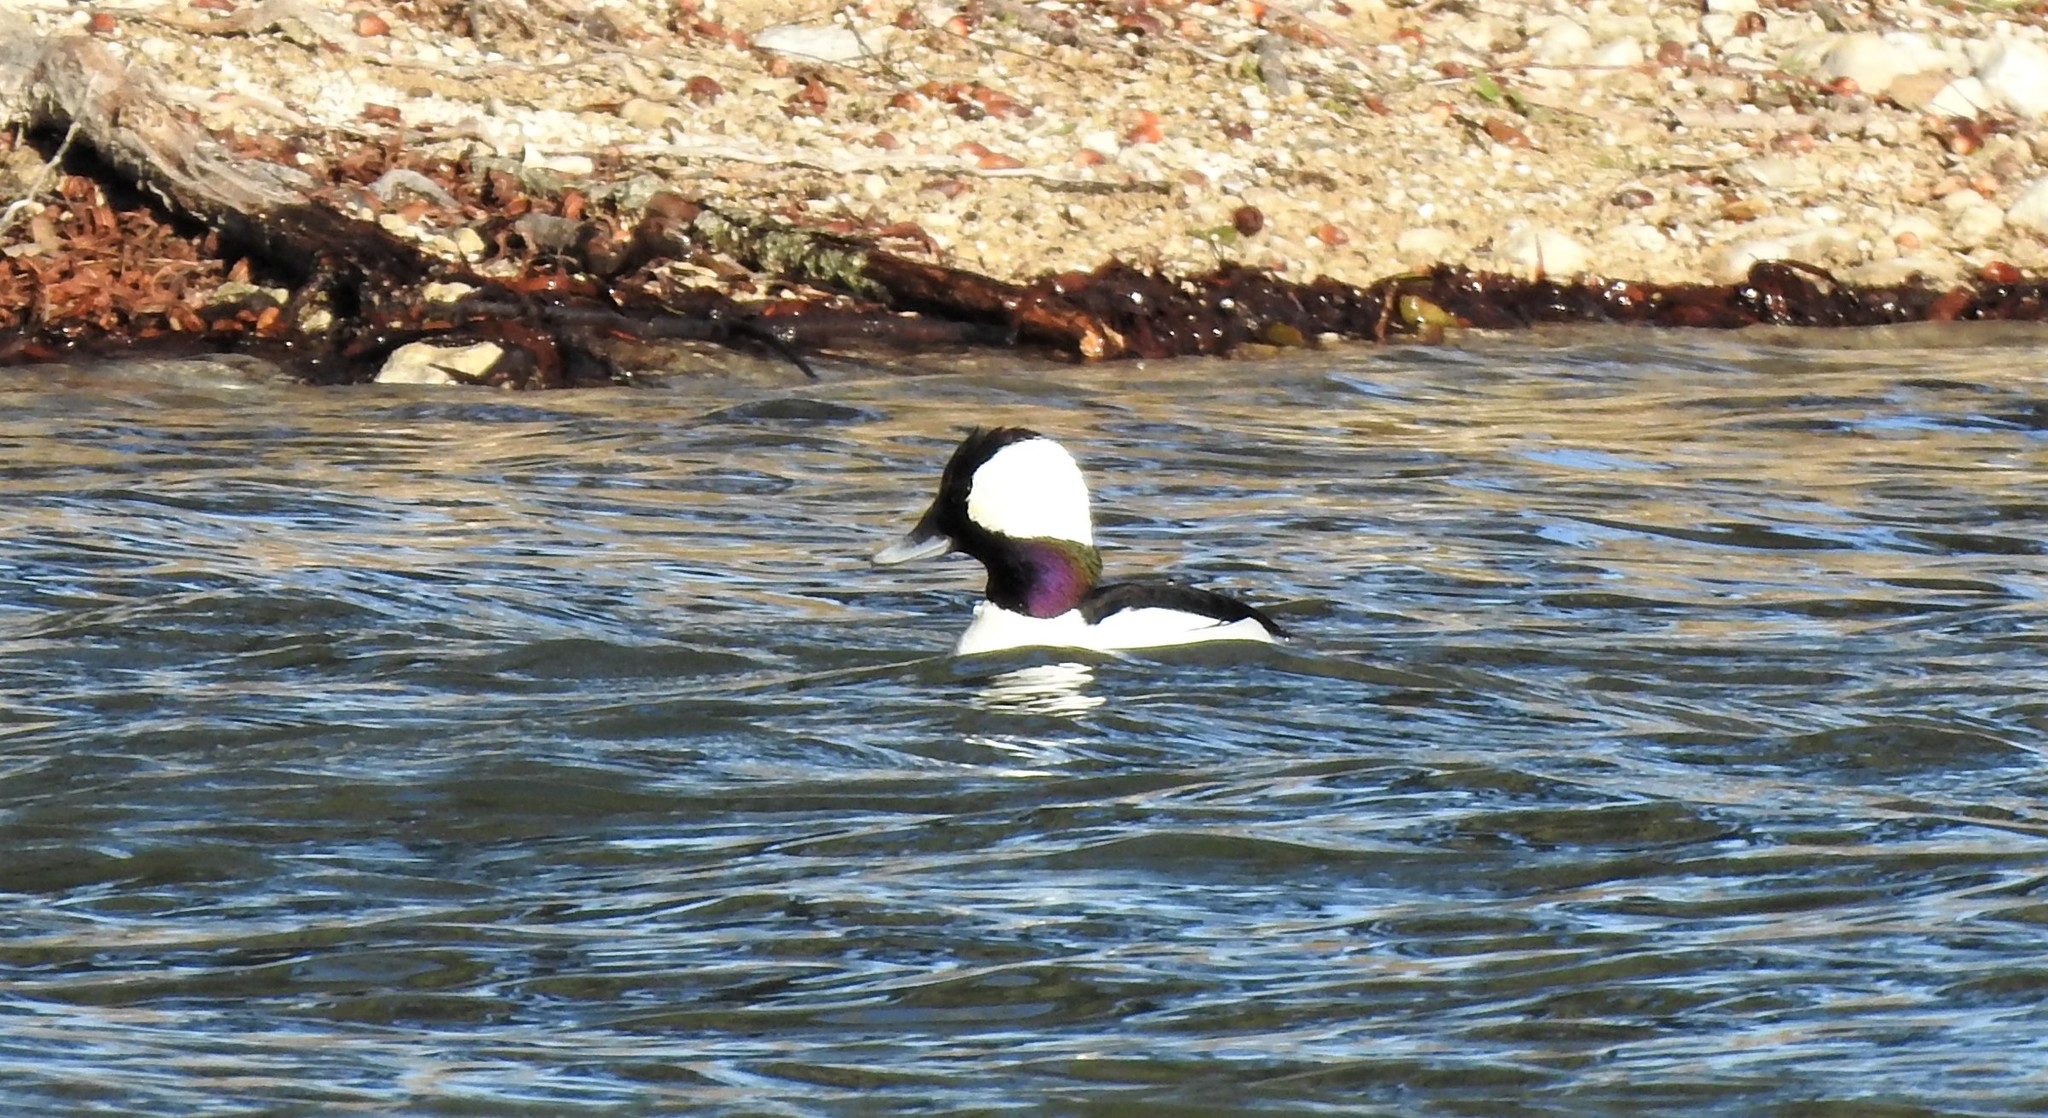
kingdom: Animalia
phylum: Chordata
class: Aves
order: Anseriformes
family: Anatidae
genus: Bucephala
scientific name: Bucephala albeola
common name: Bufflehead
